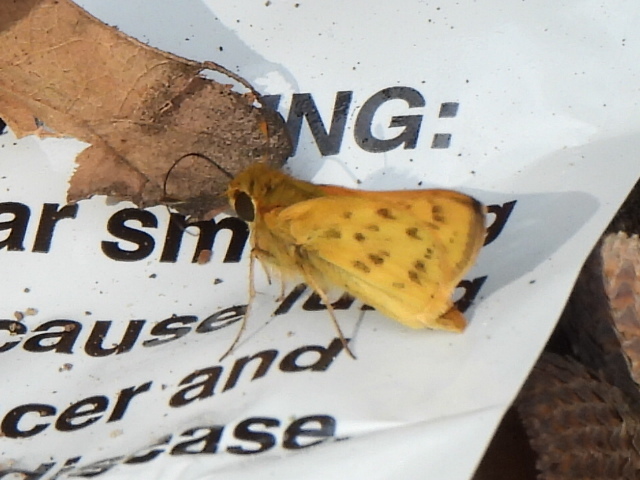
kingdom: Animalia
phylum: Arthropoda
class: Insecta
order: Lepidoptera
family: Hesperiidae
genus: Hylephila
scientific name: Hylephila phyleus
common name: Fiery skipper
